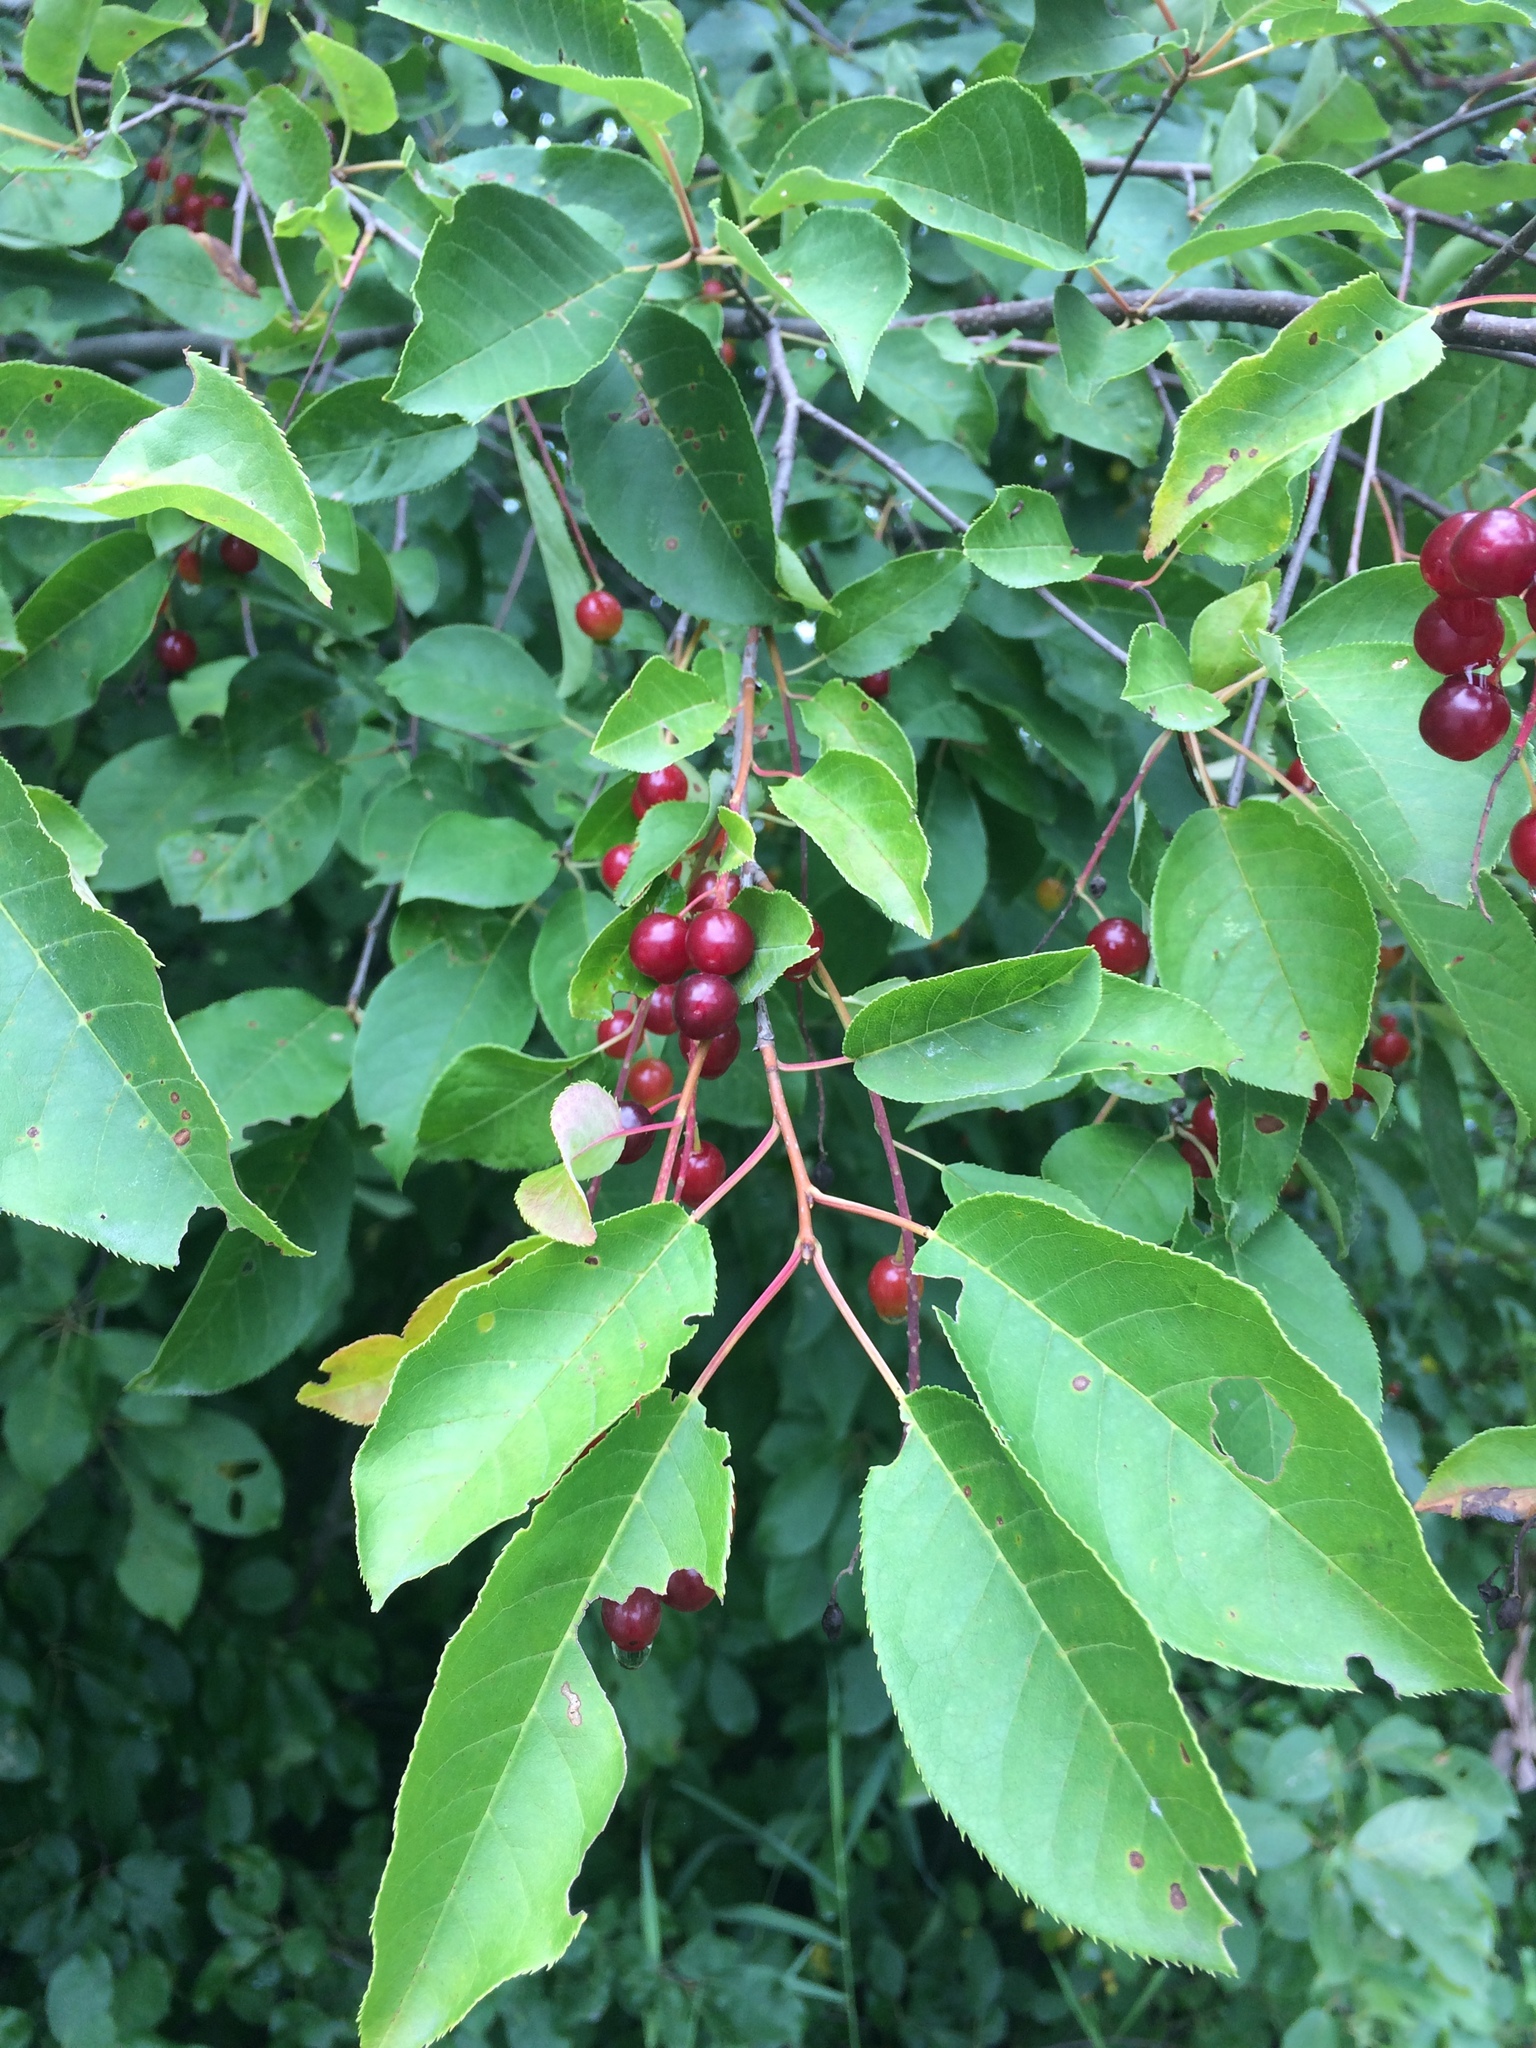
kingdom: Plantae
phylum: Tracheophyta
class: Magnoliopsida
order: Rosales
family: Rosaceae
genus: Prunus
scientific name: Prunus virginiana
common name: Chokecherry
